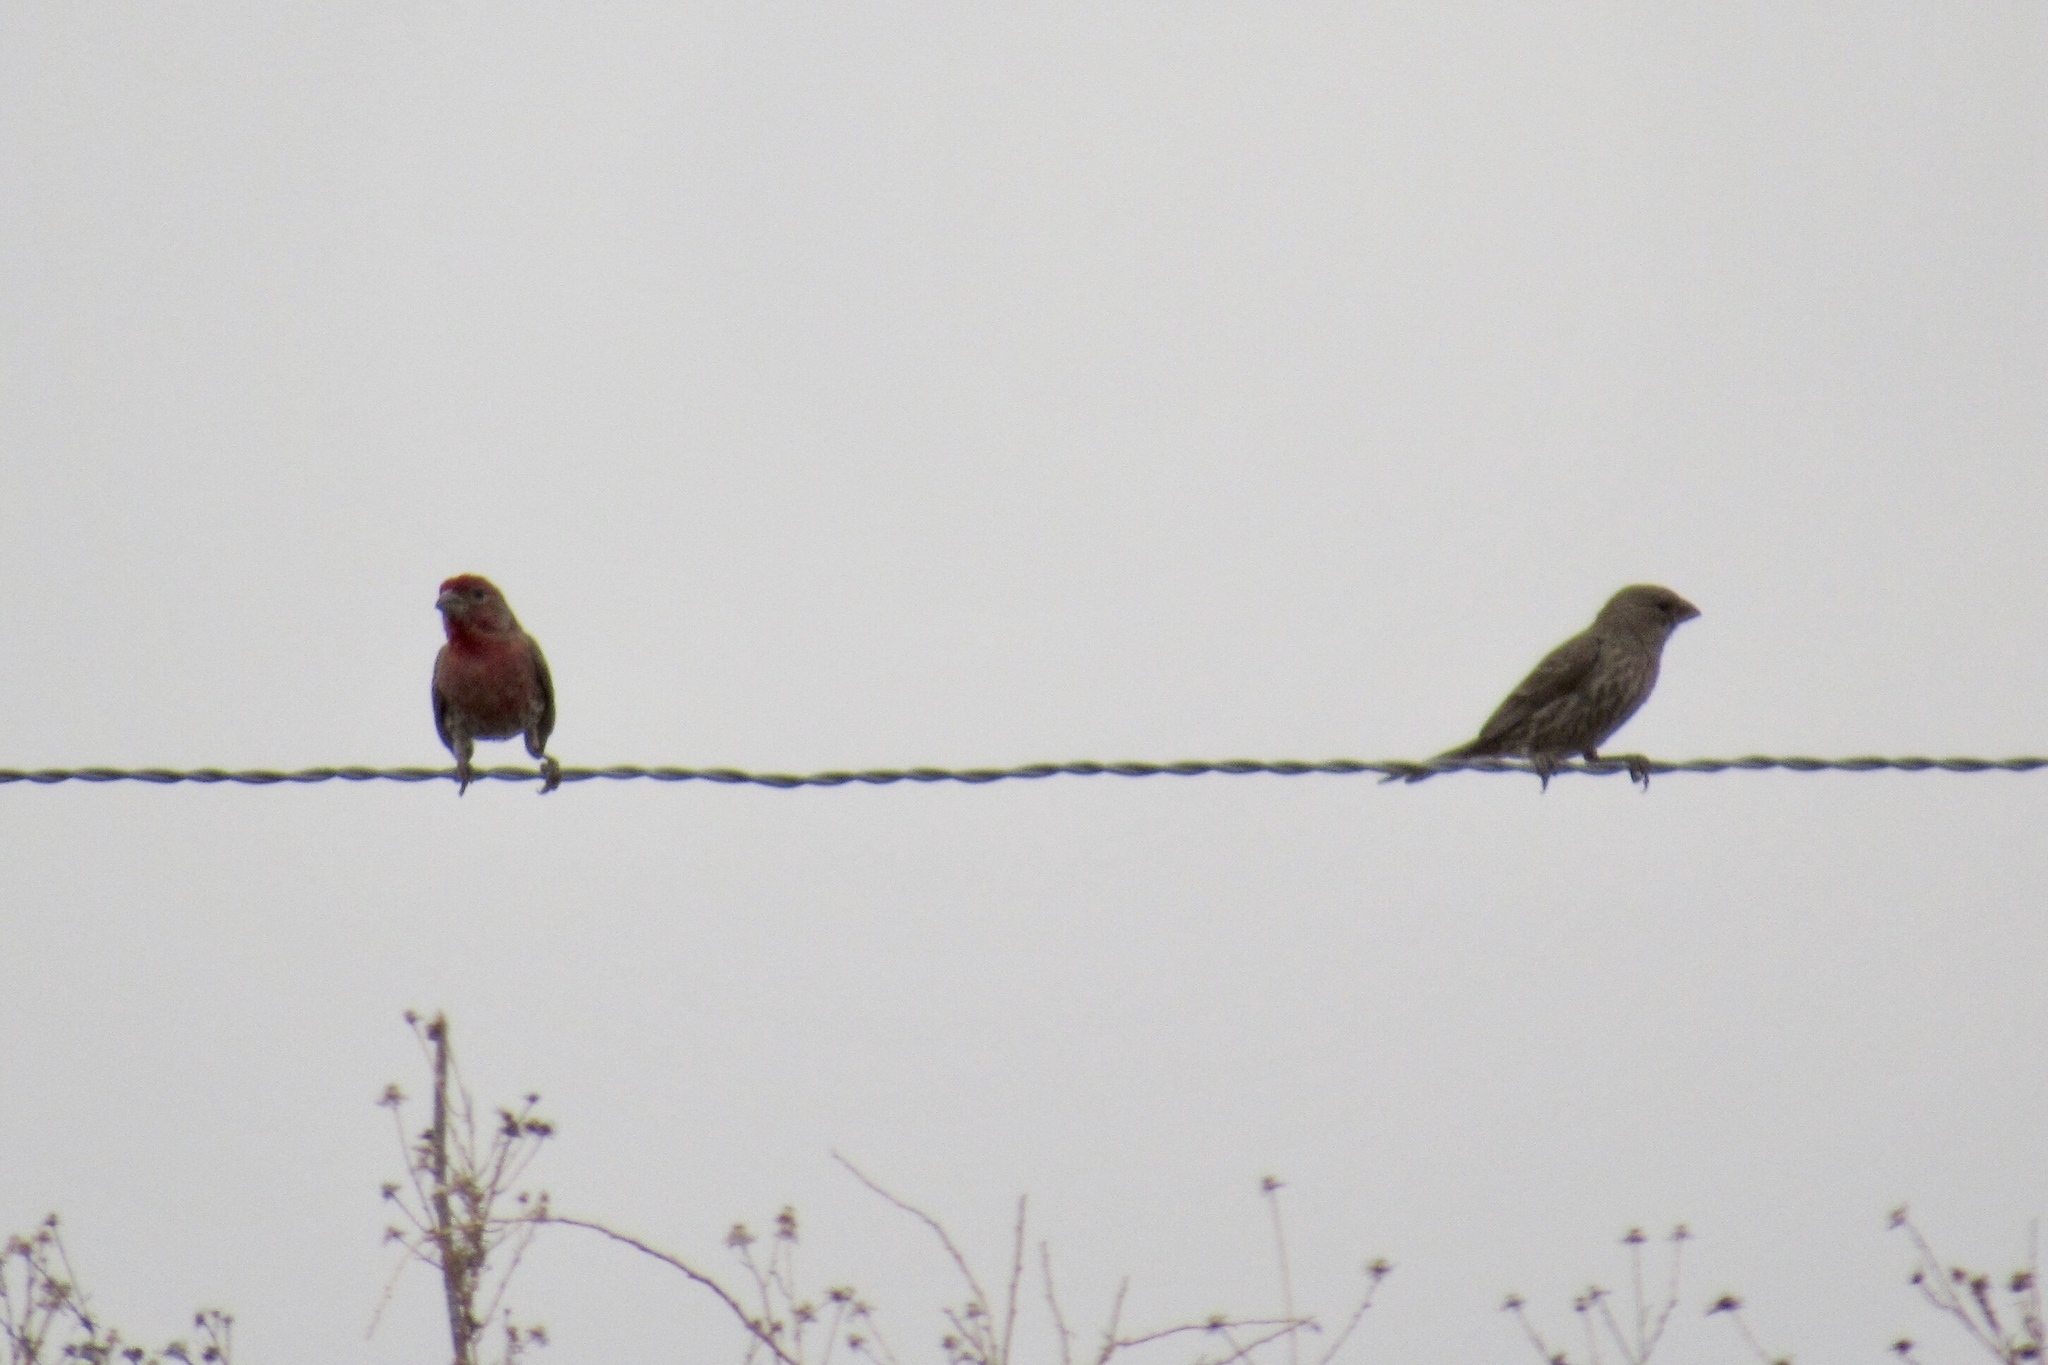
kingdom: Animalia
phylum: Chordata
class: Aves
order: Passeriformes
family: Fringillidae
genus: Haemorhous
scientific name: Haemorhous mexicanus
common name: House finch
